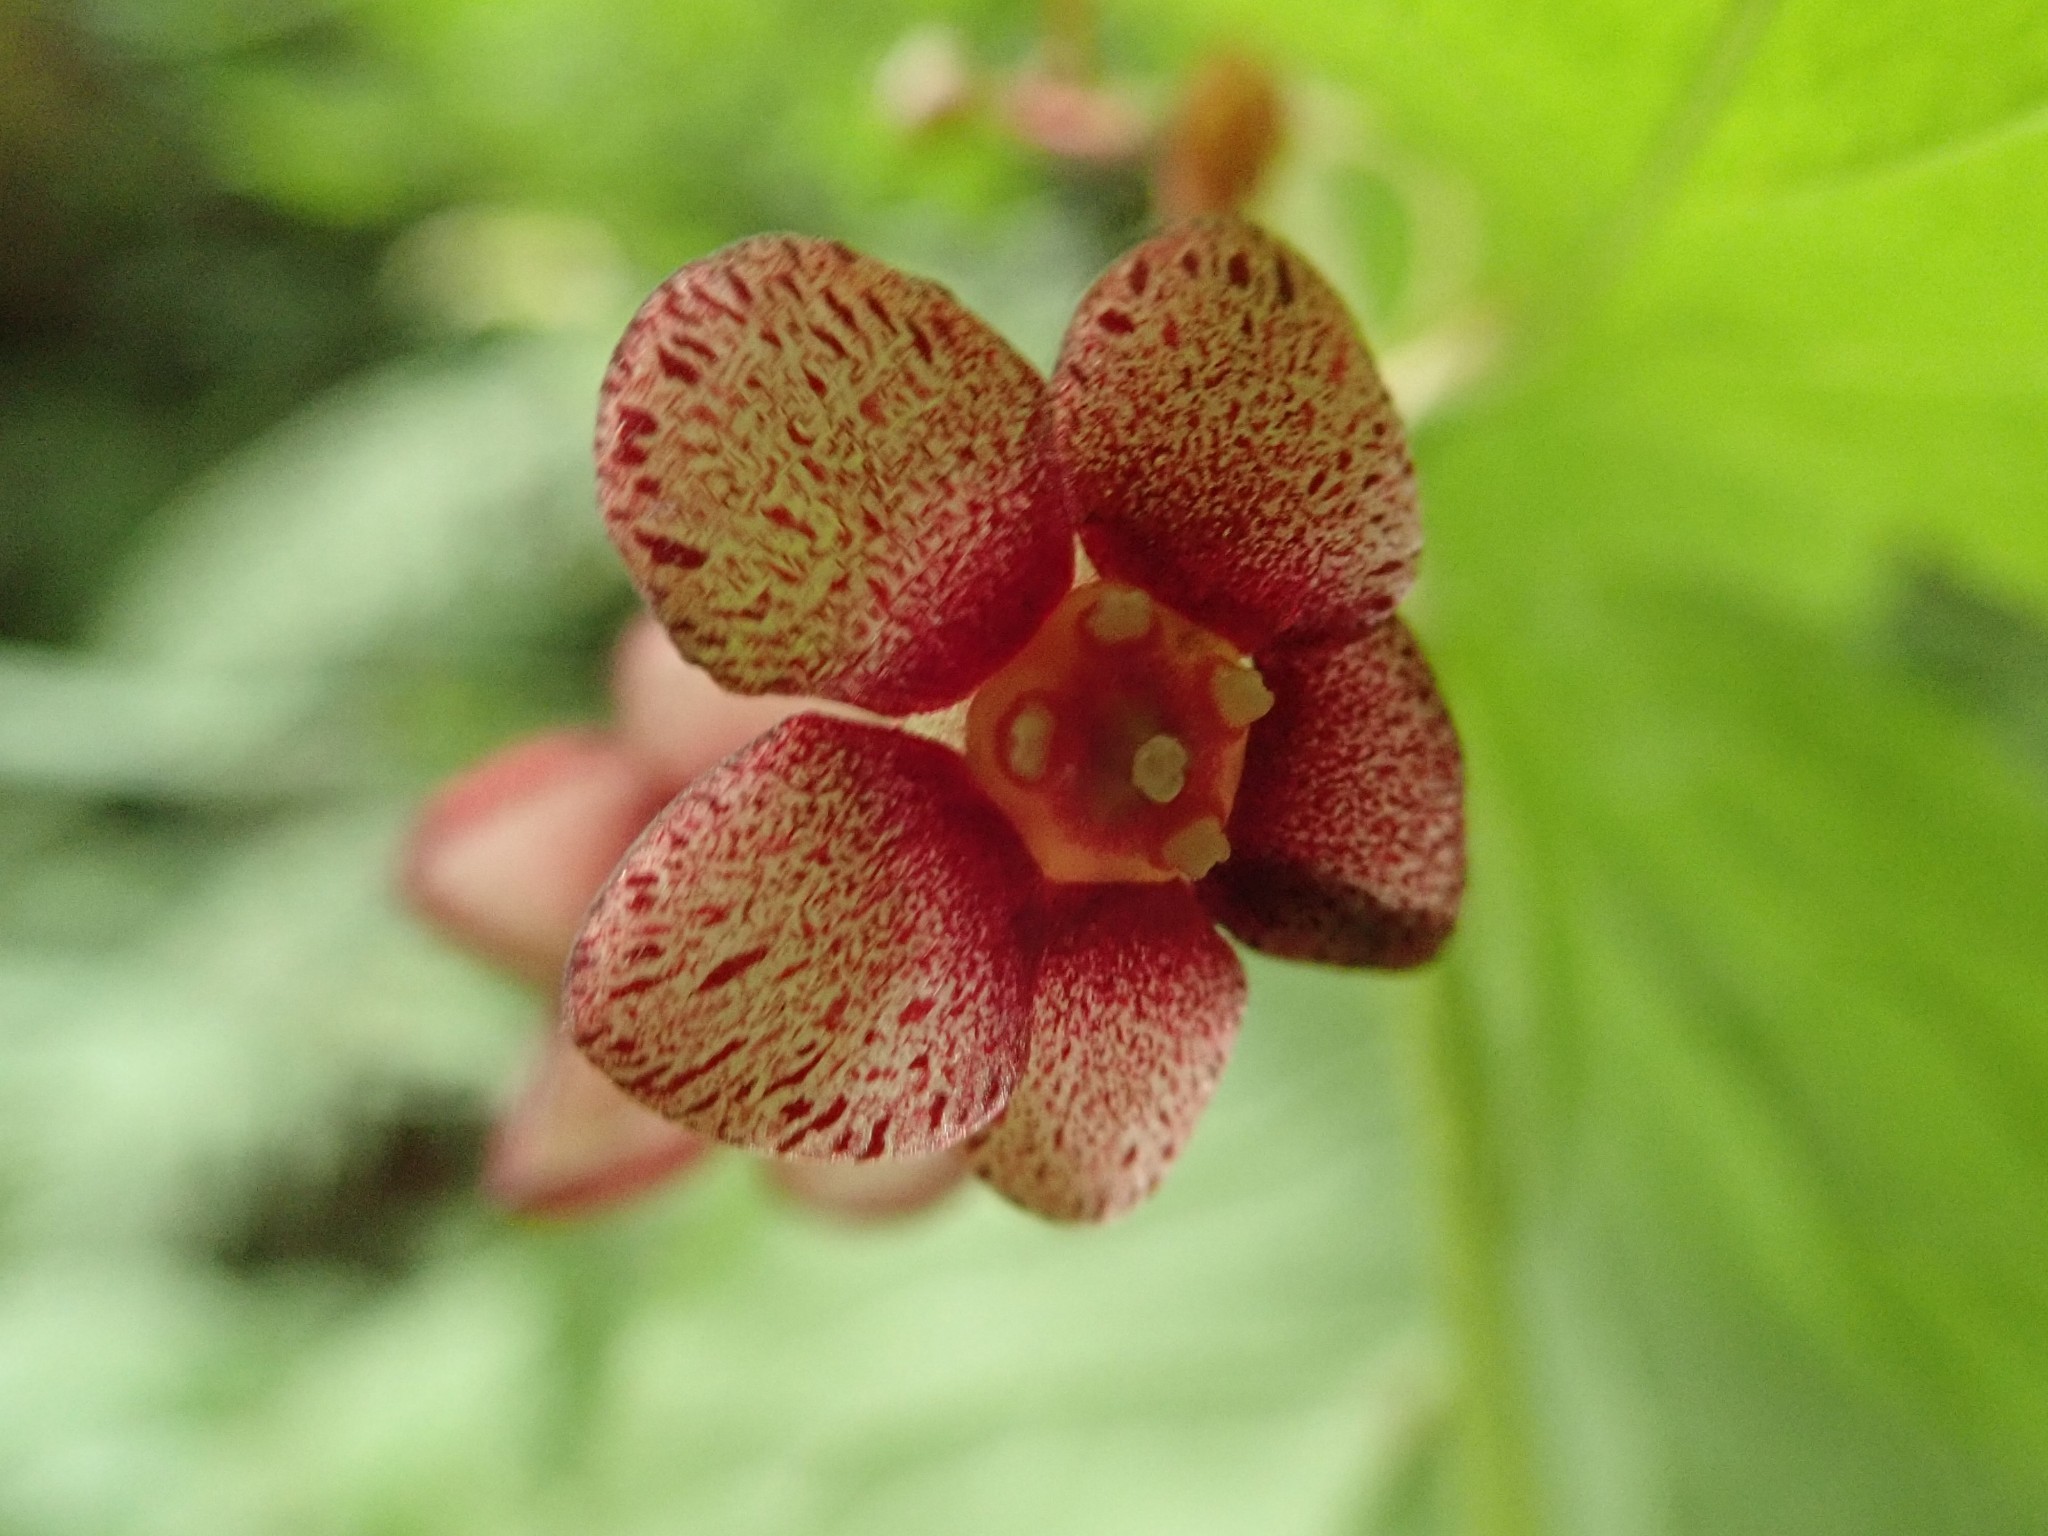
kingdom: Plantae
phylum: Tracheophyta
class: Magnoliopsida
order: Celastrales
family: Celastraceae
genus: Euonymus
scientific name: Euonymus occidentalis
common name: Western burningbush
